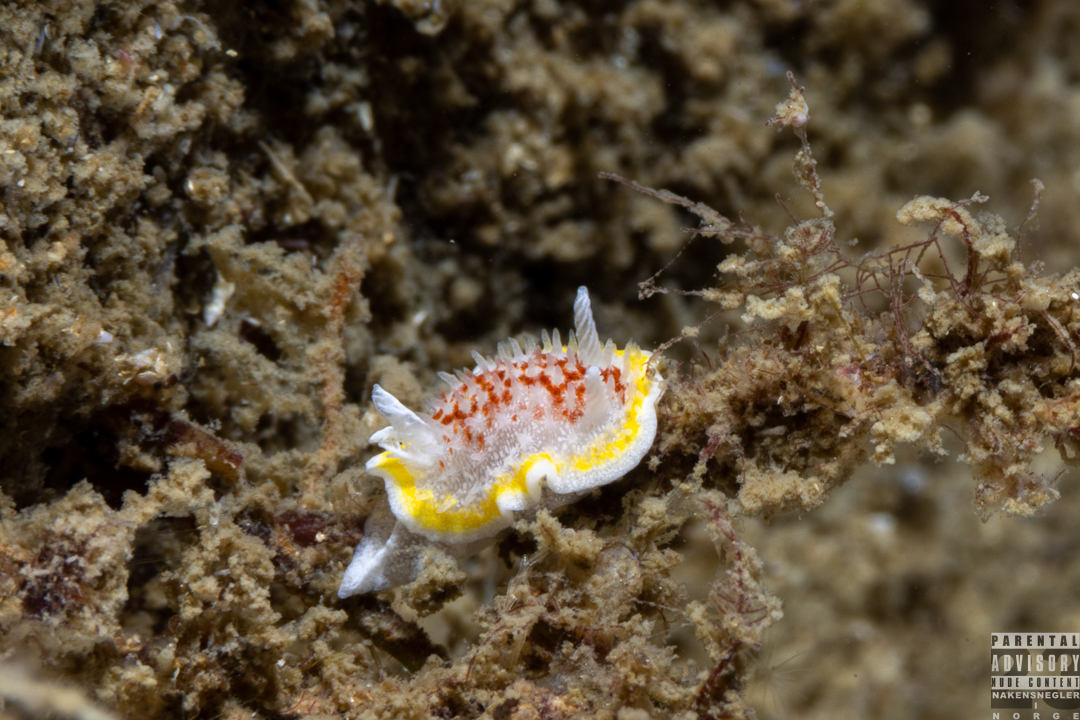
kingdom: Animalia
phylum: Mollusca
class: Gastropoda
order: Nudibranchia
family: Calycidorididae
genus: Diaphorodoris
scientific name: Diaphorodoris luteocincta
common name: Fried egg nudibranch
